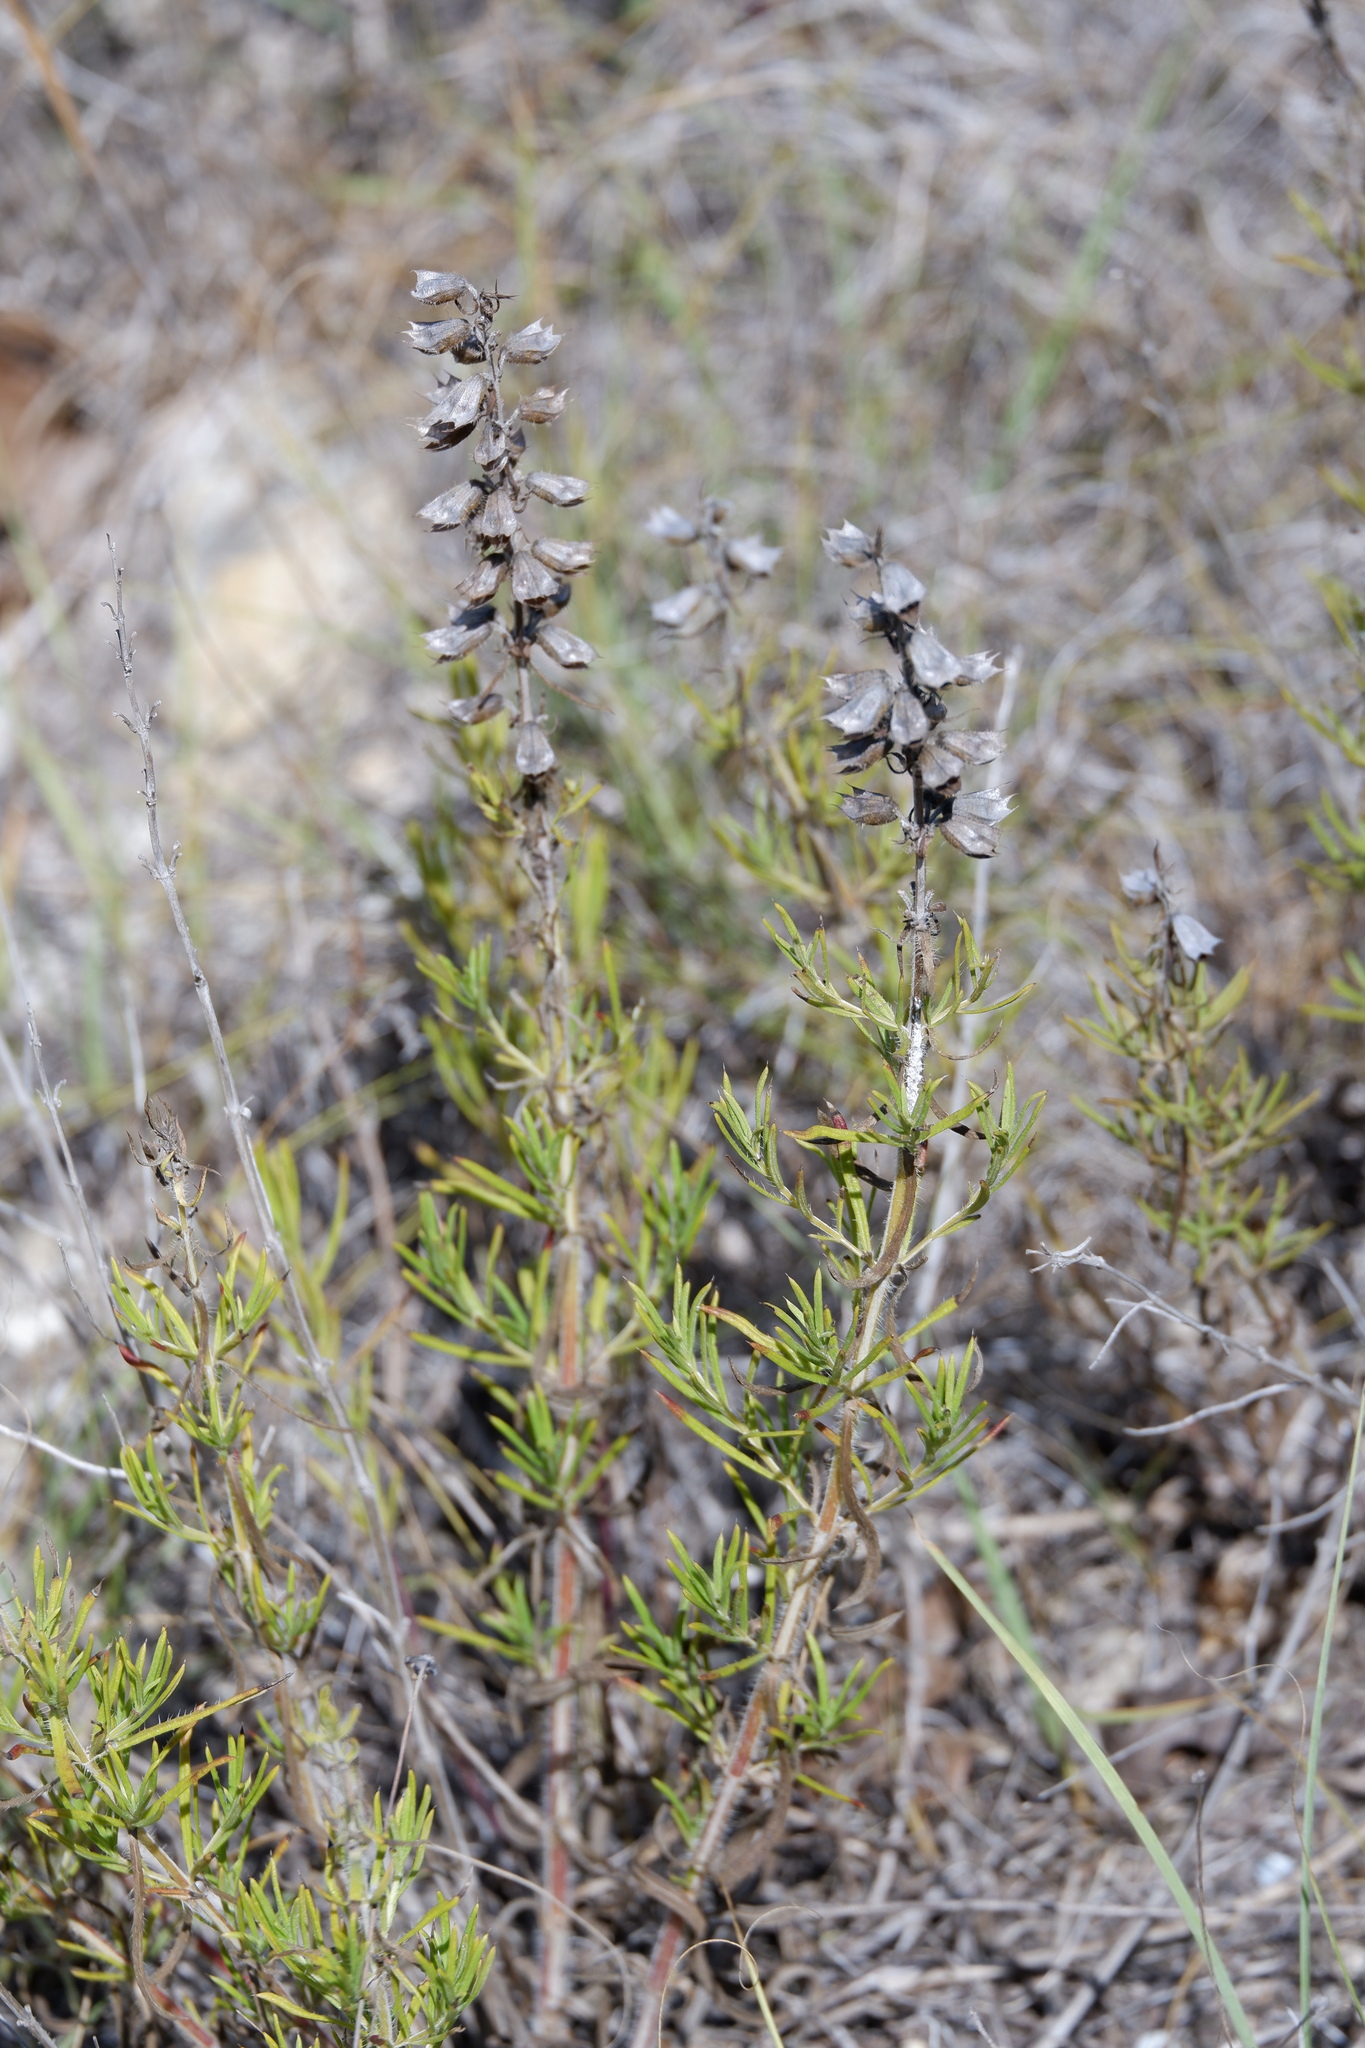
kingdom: Plantae
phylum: Tracheophyta
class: Magnoliopsida
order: Lamiales
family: Lamiaceae
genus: Salvia
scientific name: Salvia engelmannii
